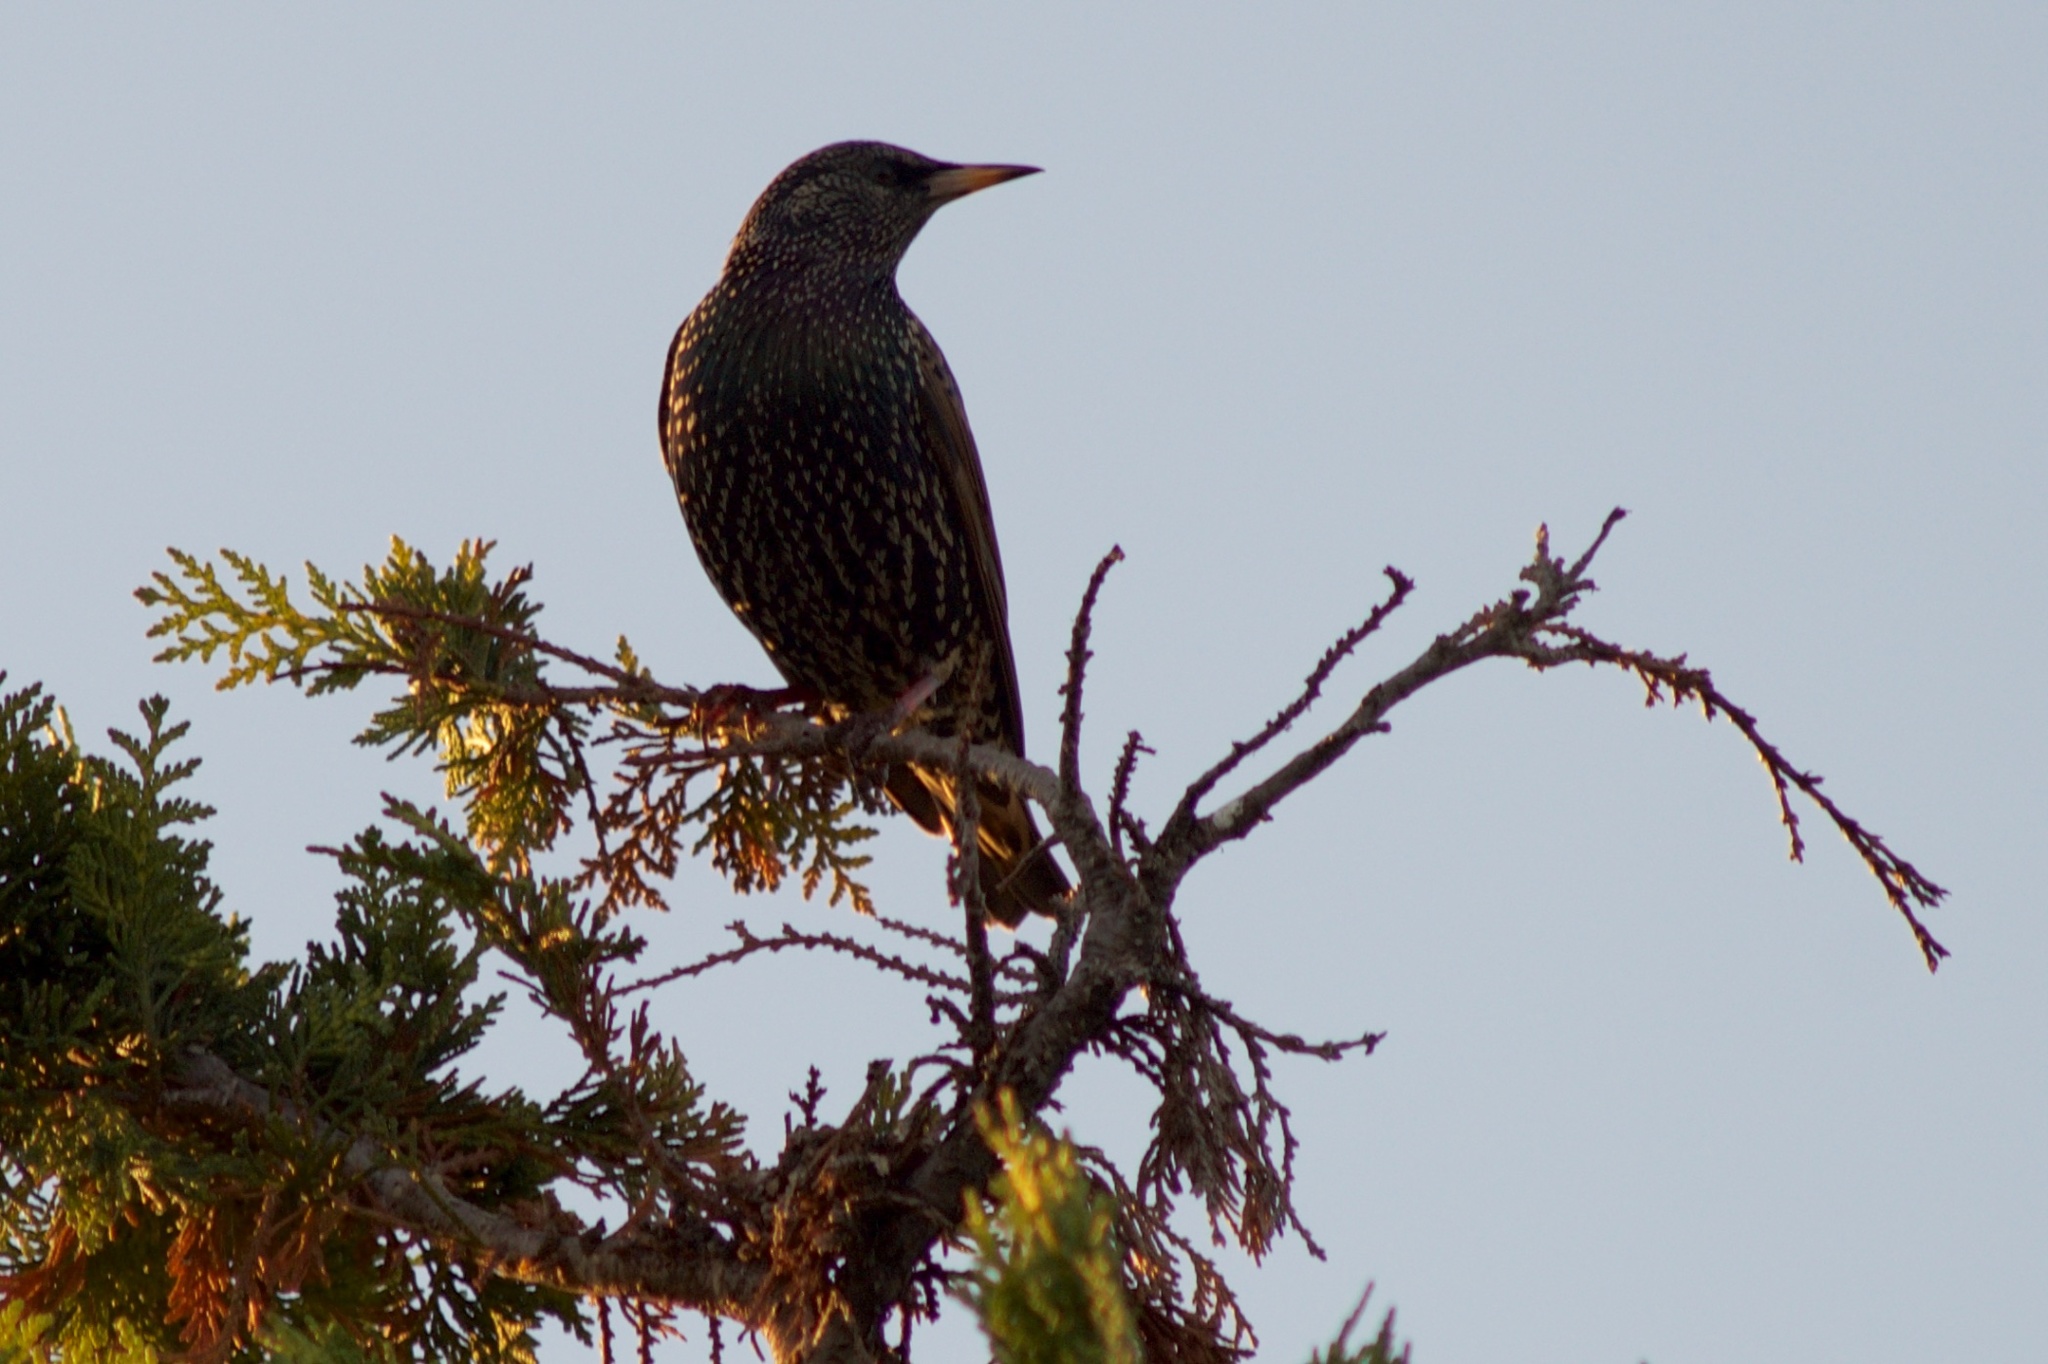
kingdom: Animalia
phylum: Chordata
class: Aves
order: Passeriformes
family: Sturnidae
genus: Sturnus
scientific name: Sturnus vulgaris
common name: Common starling
